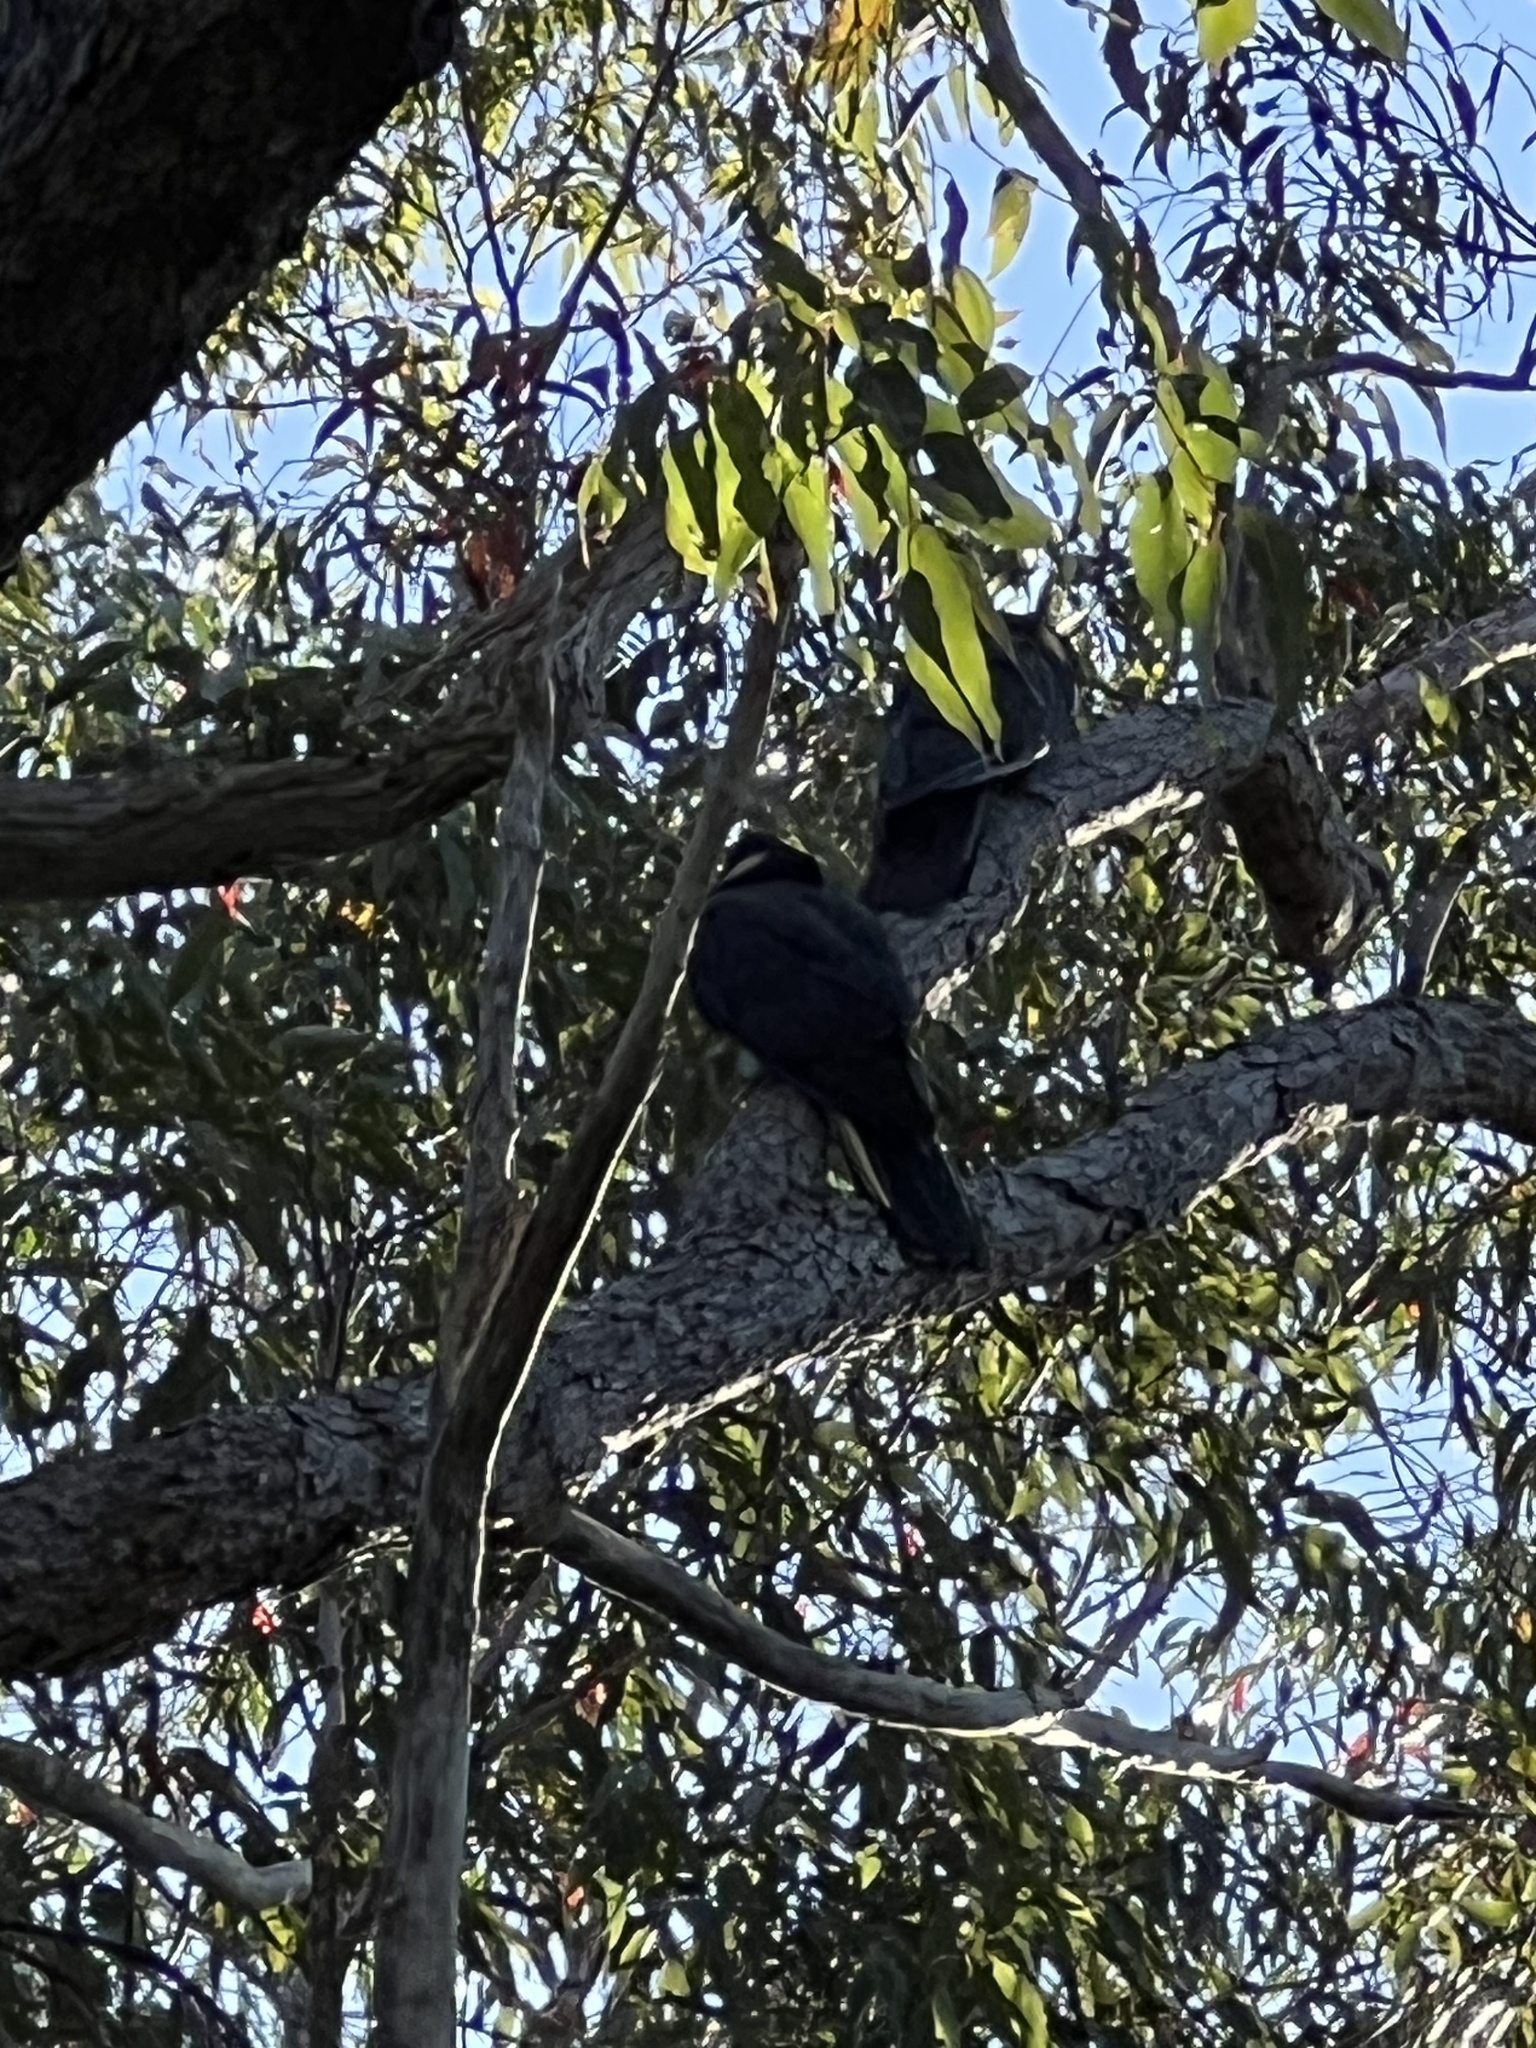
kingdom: Animalia
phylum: Chordata
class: Aves
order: Psittaciformes
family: Cacatuidae
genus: Zanda
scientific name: Zanda funerea
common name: Yellow-tailed black-cockatoo
